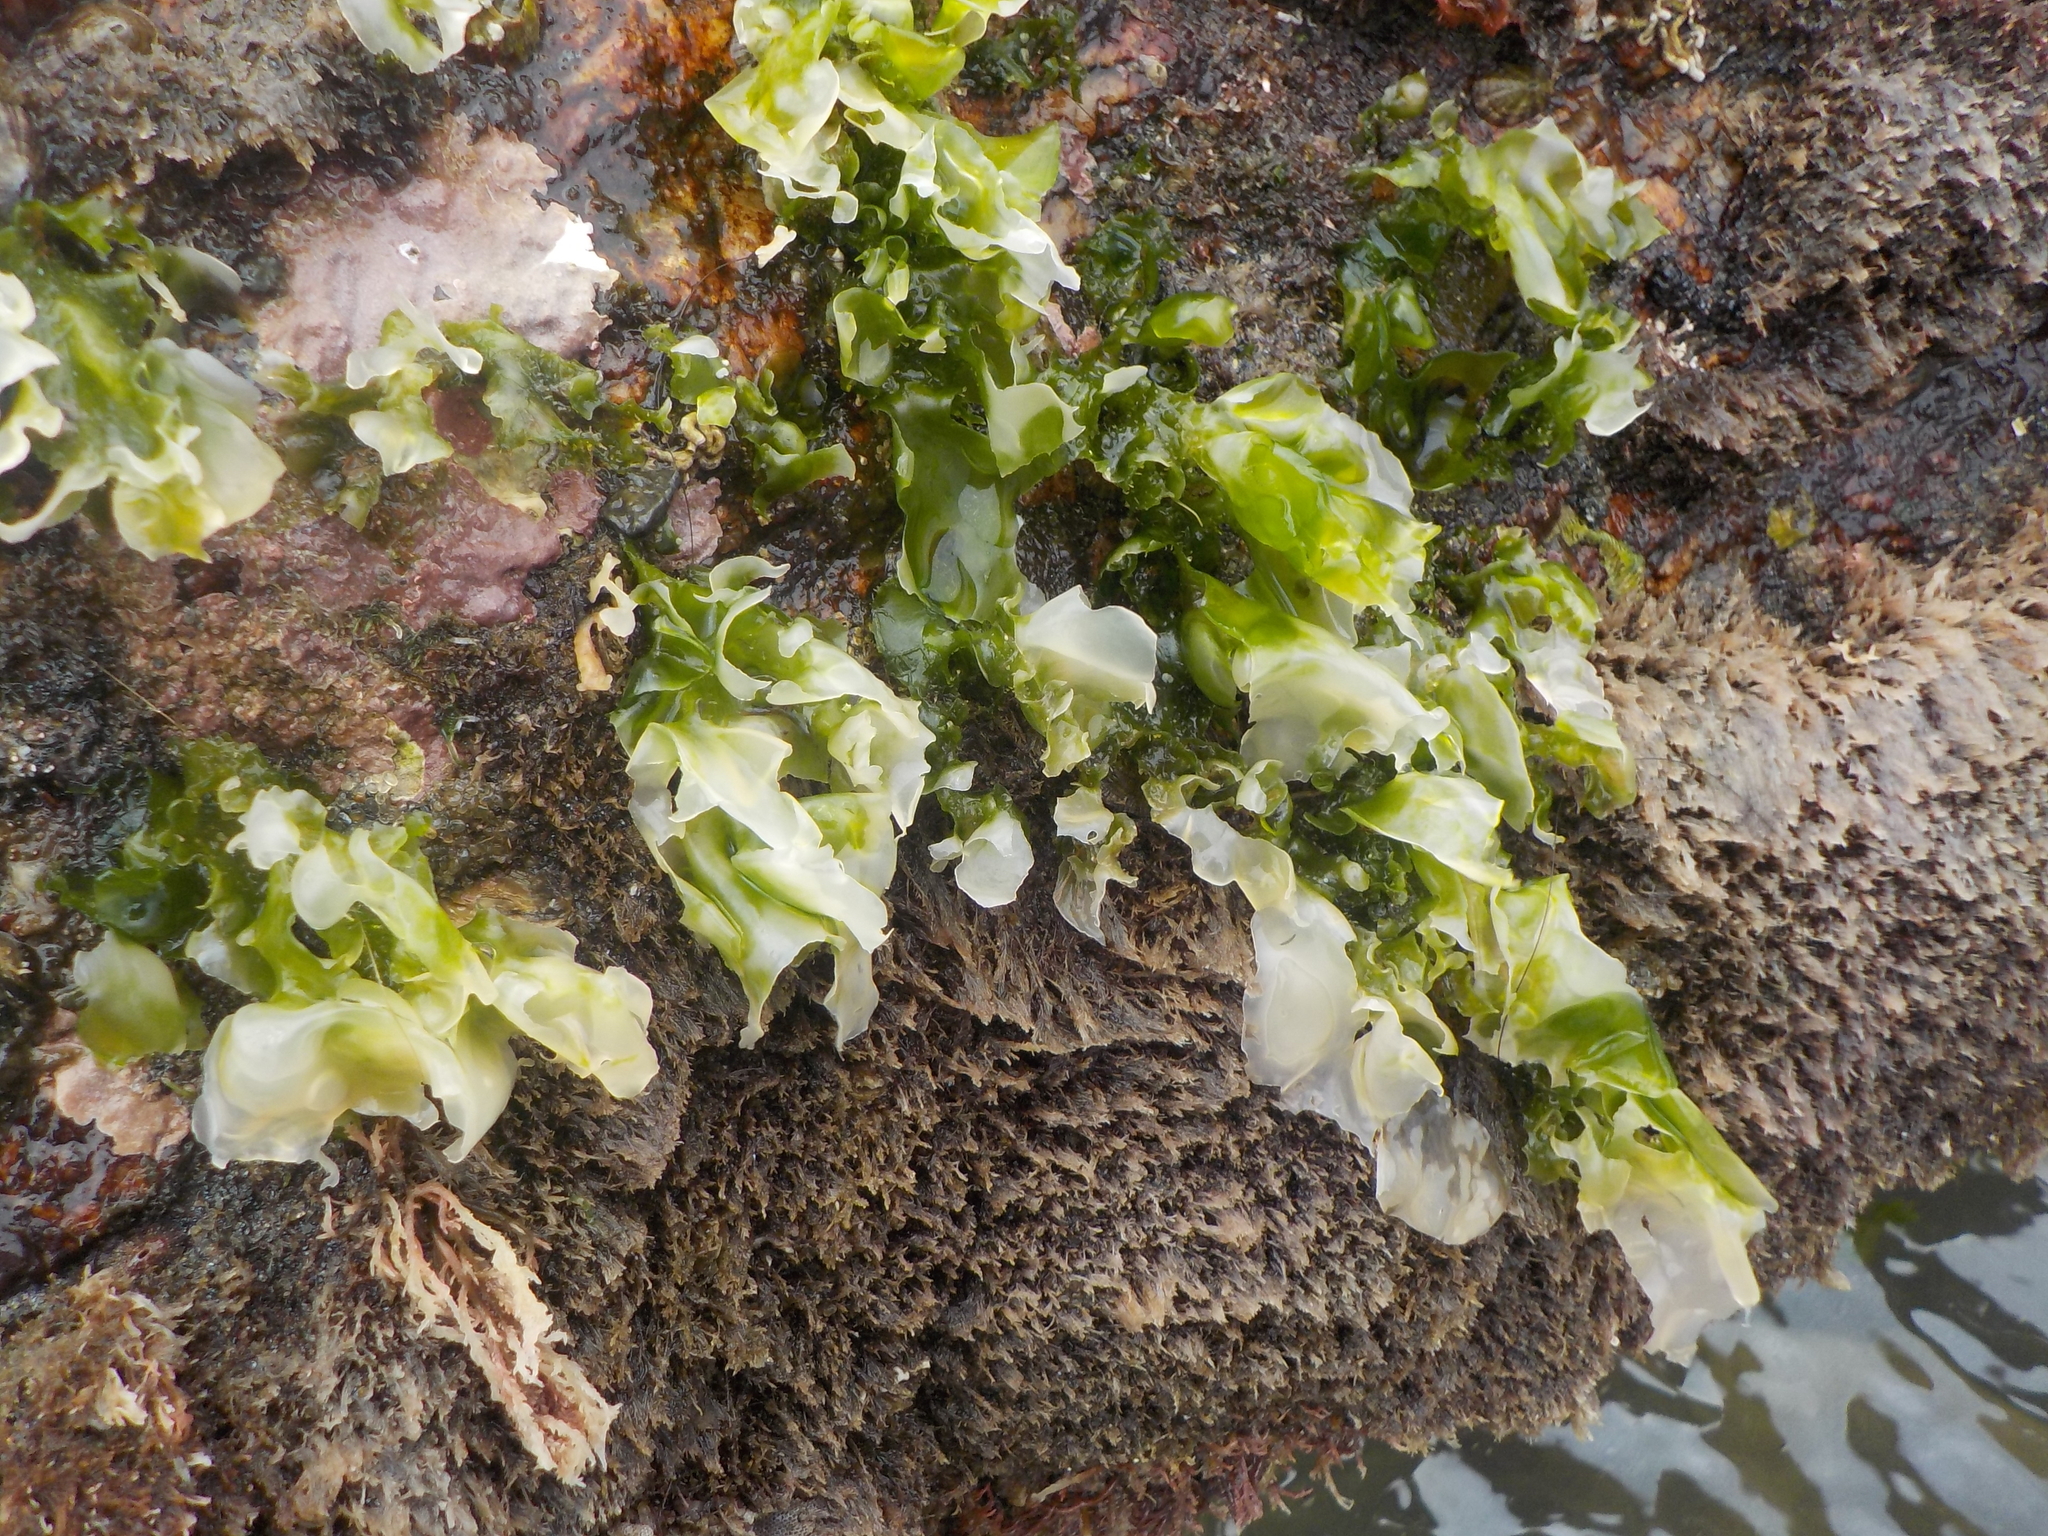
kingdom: Plantae
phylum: Chlorophyta
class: Ulvophyceae
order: Ulvales
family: Ulvaceae
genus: Ulva
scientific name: Ulva lactuca
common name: Sea lettuce
